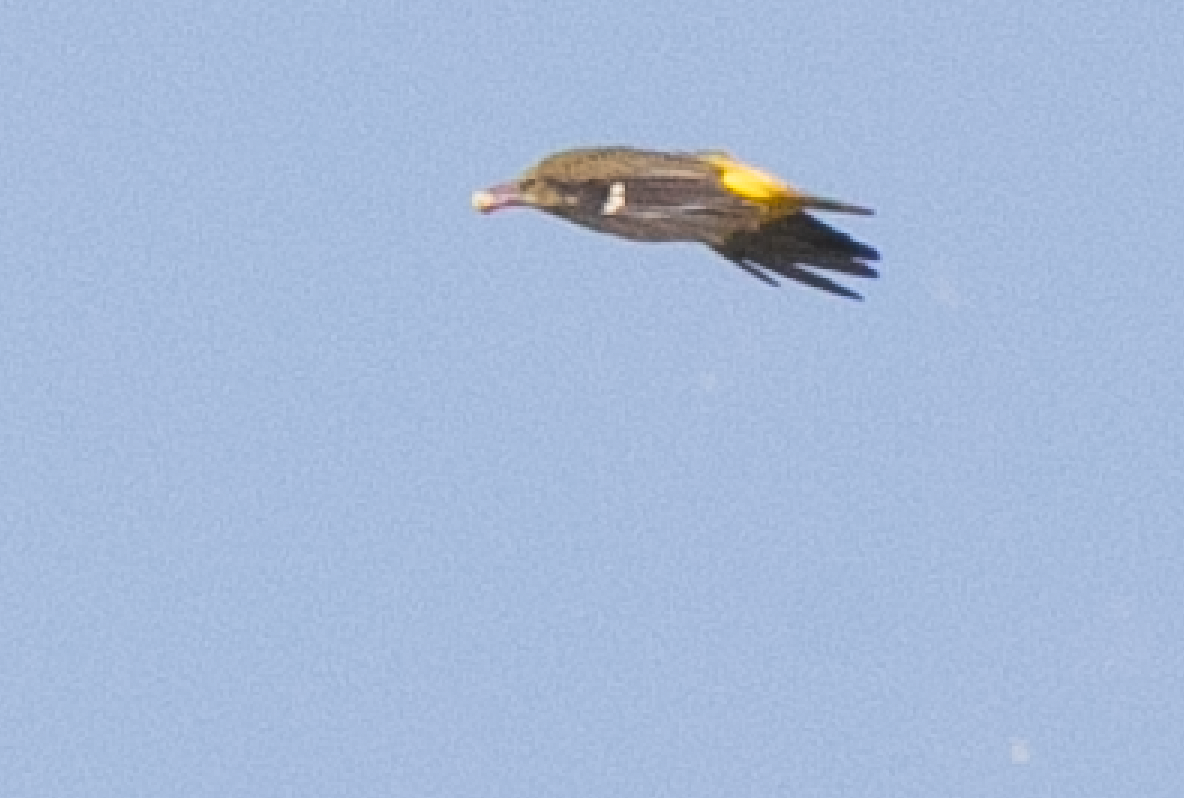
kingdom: Animalia
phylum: Chordata
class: Aves
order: Passeriformes
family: Oriolidae
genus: Oriolus
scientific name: Oriolus oriolus
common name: Eurasian golden oriole
